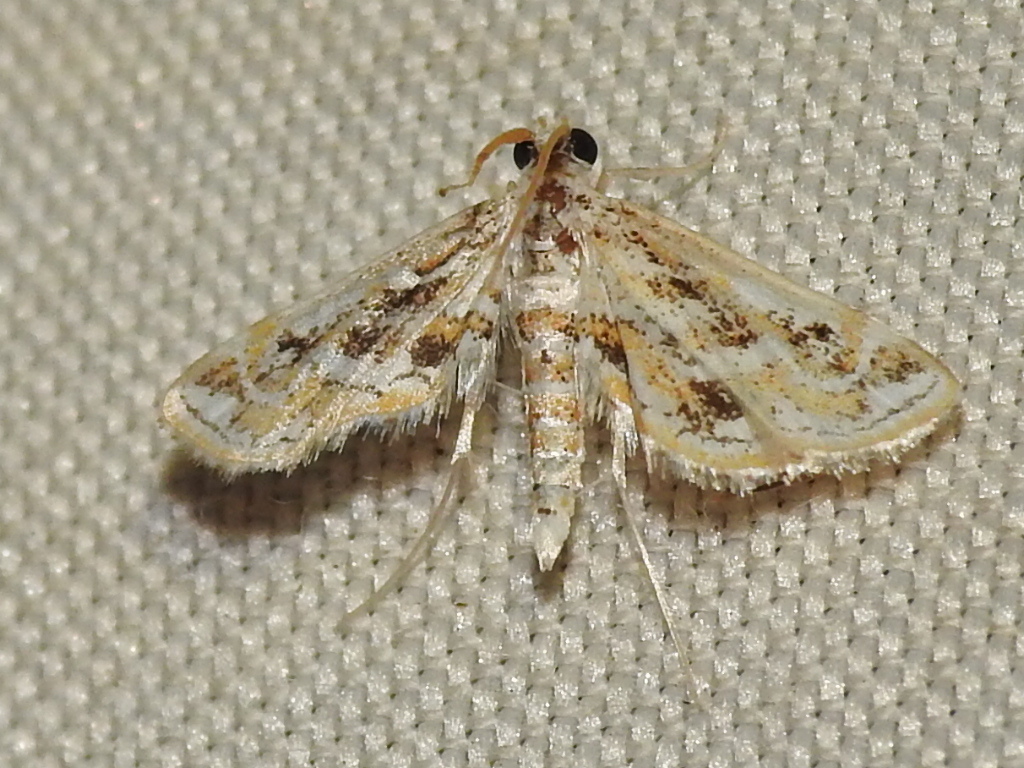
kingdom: Animalia
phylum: Arthropoda
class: Insecta
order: Lepidoptera
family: Crambidae
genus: Parapoynx
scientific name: Parapoynx diminutalis
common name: Hydrilla leafcutter
